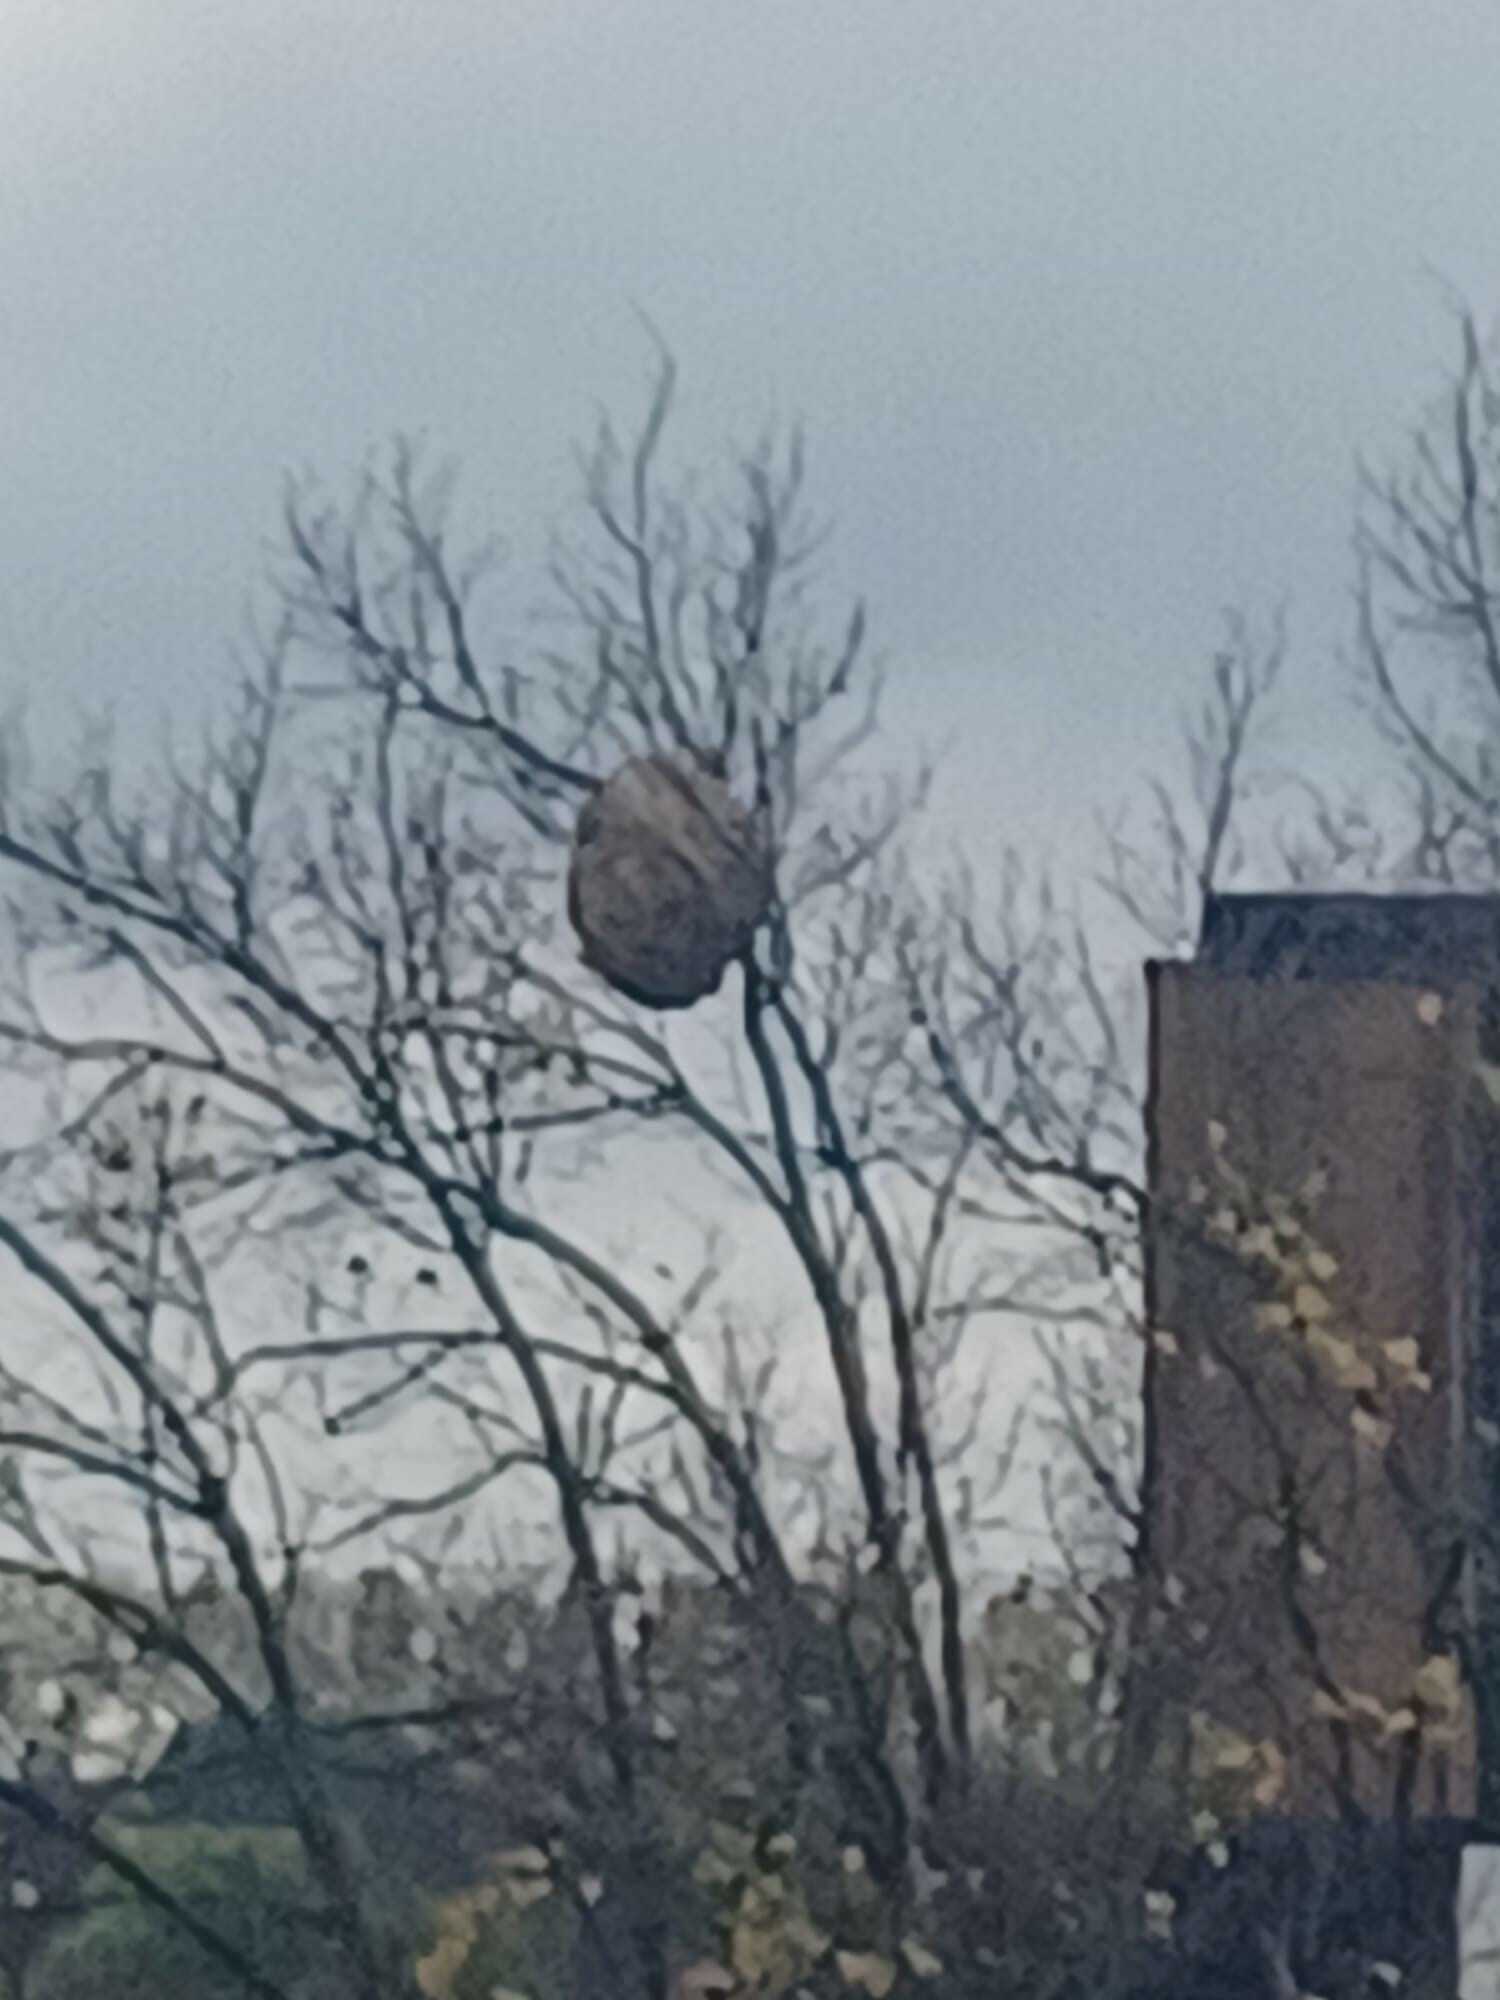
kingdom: Animalia
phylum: Arthropoda
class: Insecta
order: Hymenoptera
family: Vespidae
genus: Vespa
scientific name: Vespa velutina
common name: Asian hornet
